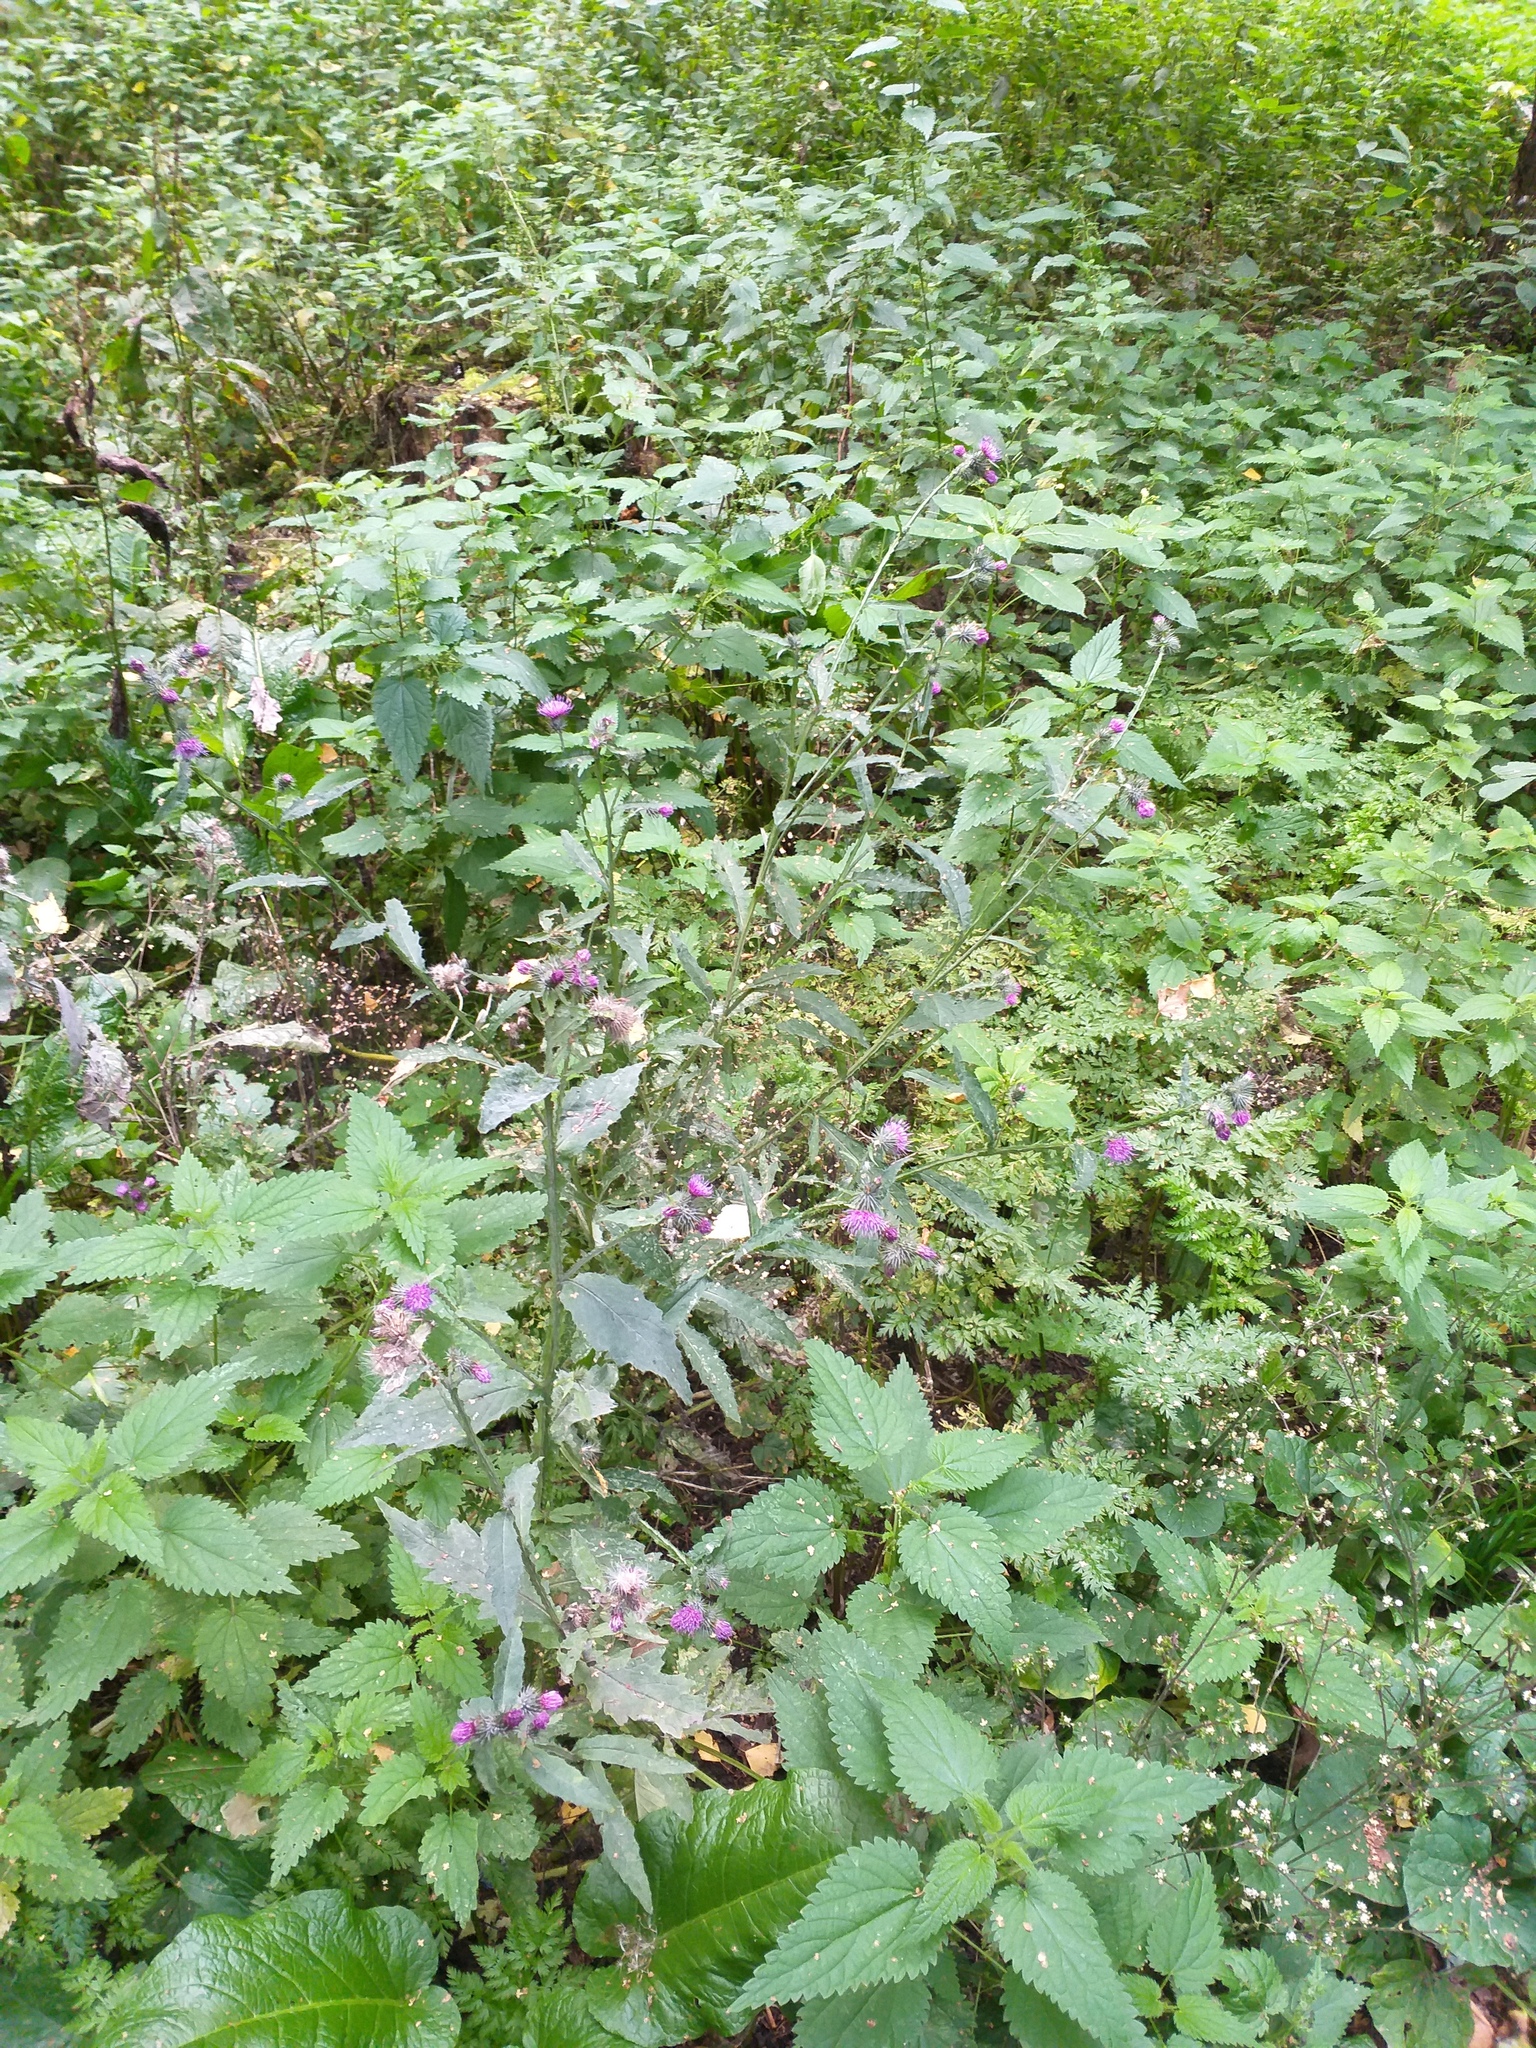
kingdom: Plantae
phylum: Tracheophyta
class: Magnoliopsida
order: Asterales
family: Asteraceae
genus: Carduus
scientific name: Carduus crispus
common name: Welted thistle
